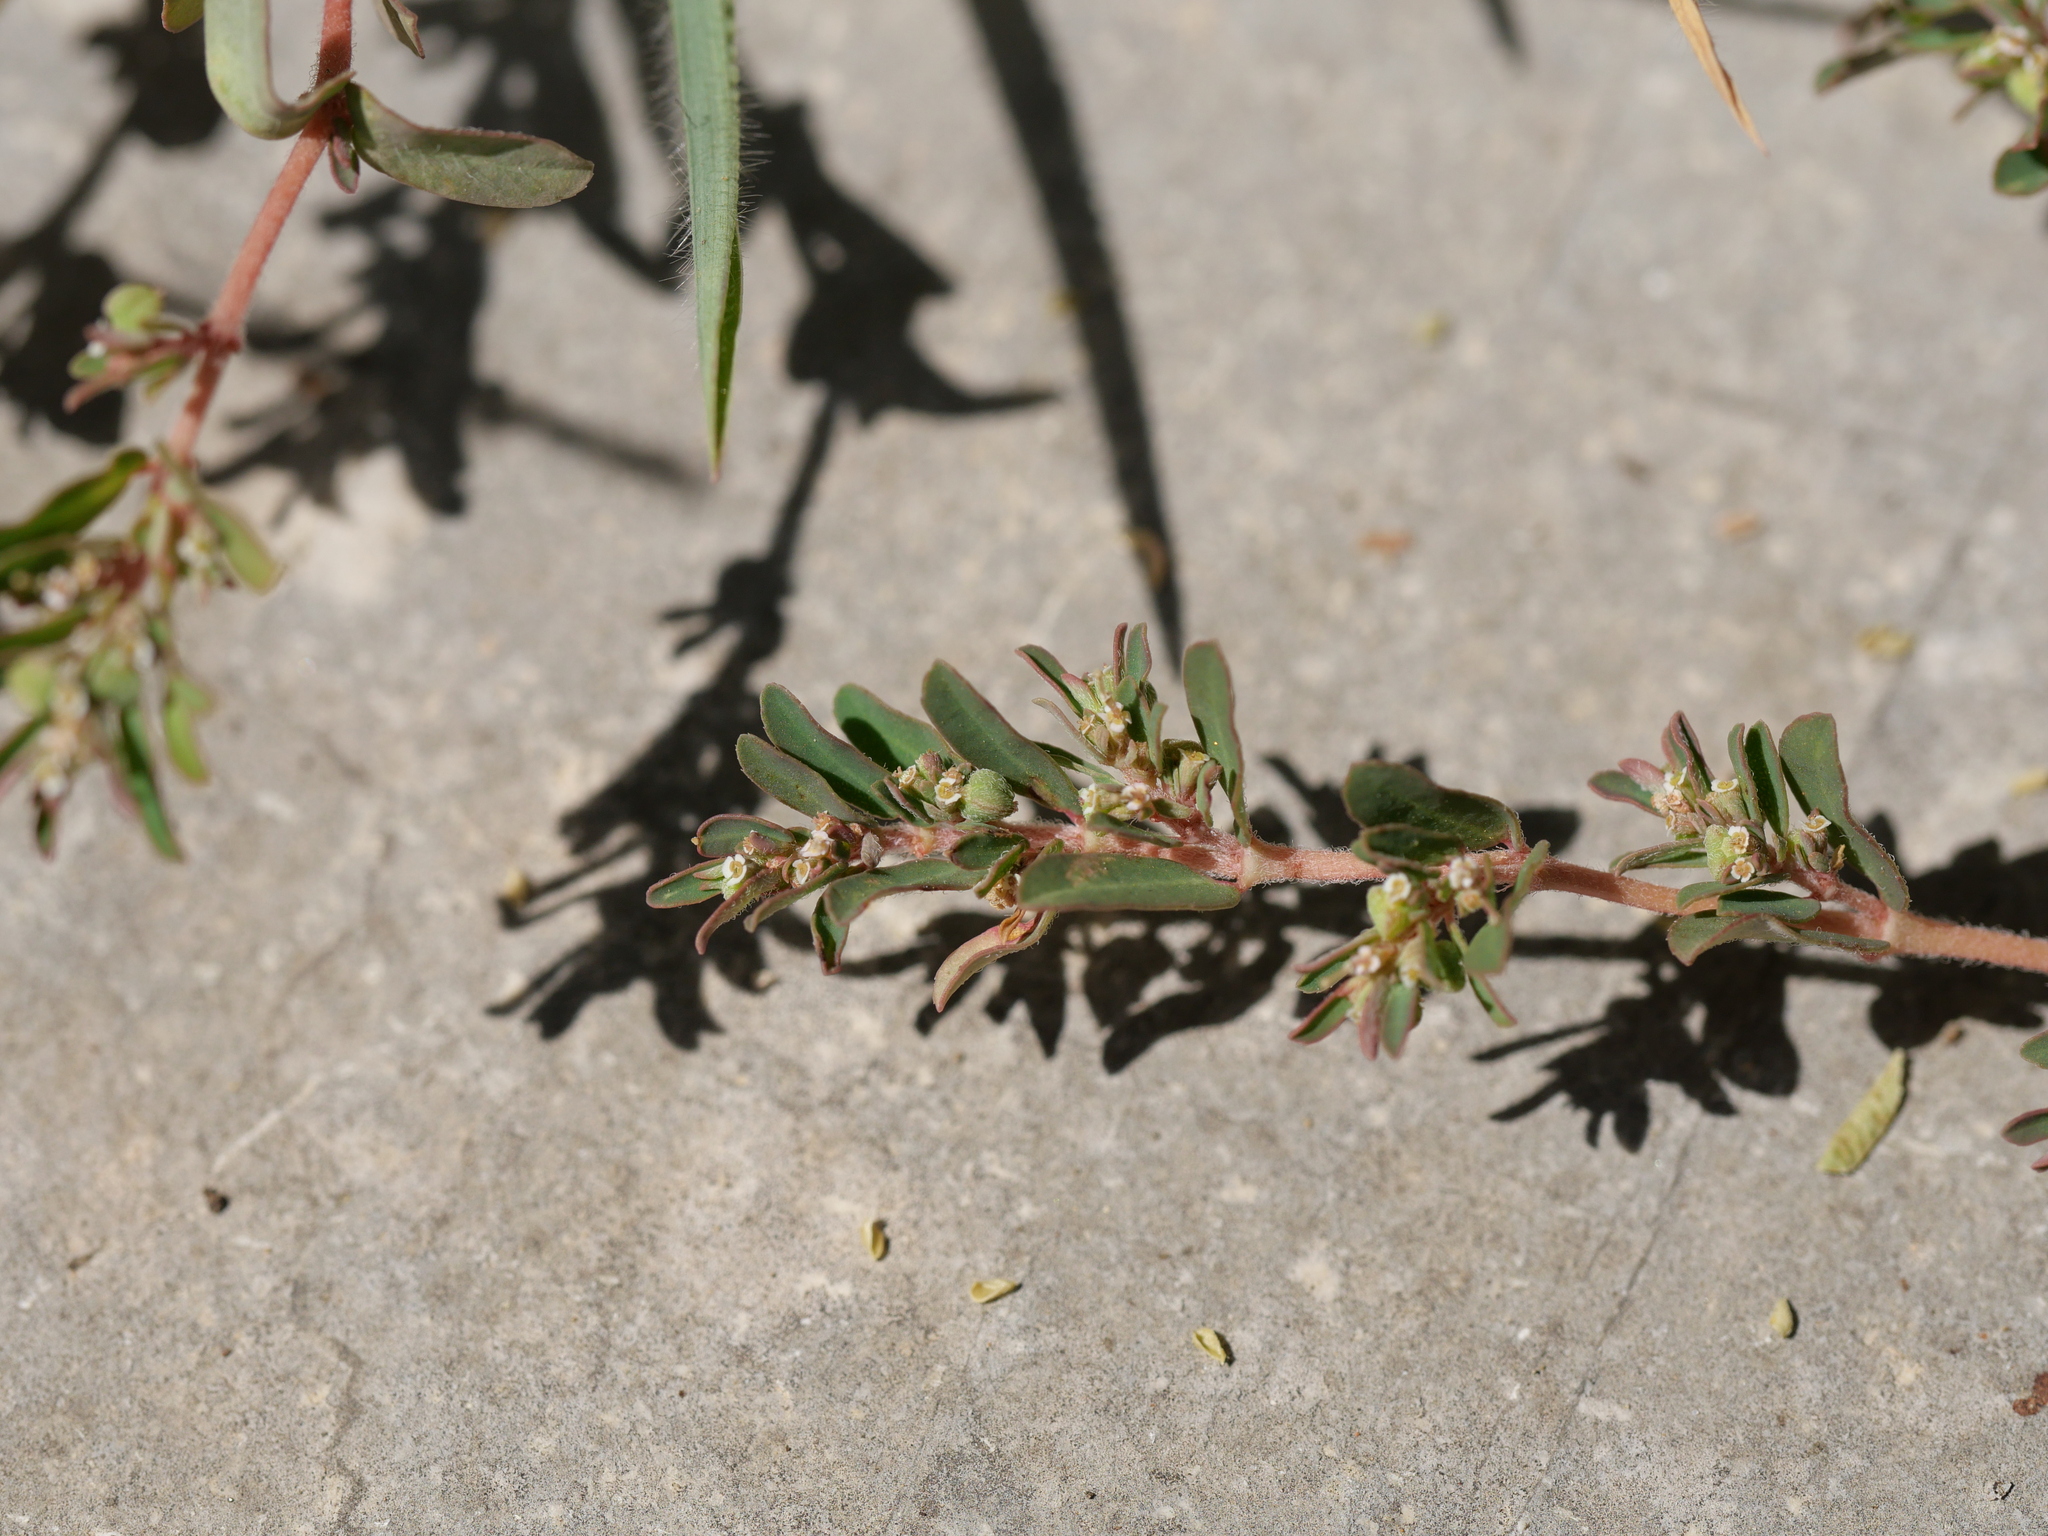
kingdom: Plantae
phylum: Tracheophyta
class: Magnoliopsida
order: Malpighiales
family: Euphorbiaceae
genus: Euphorbia
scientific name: Euphorbia maculata
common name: Spotted spurge
